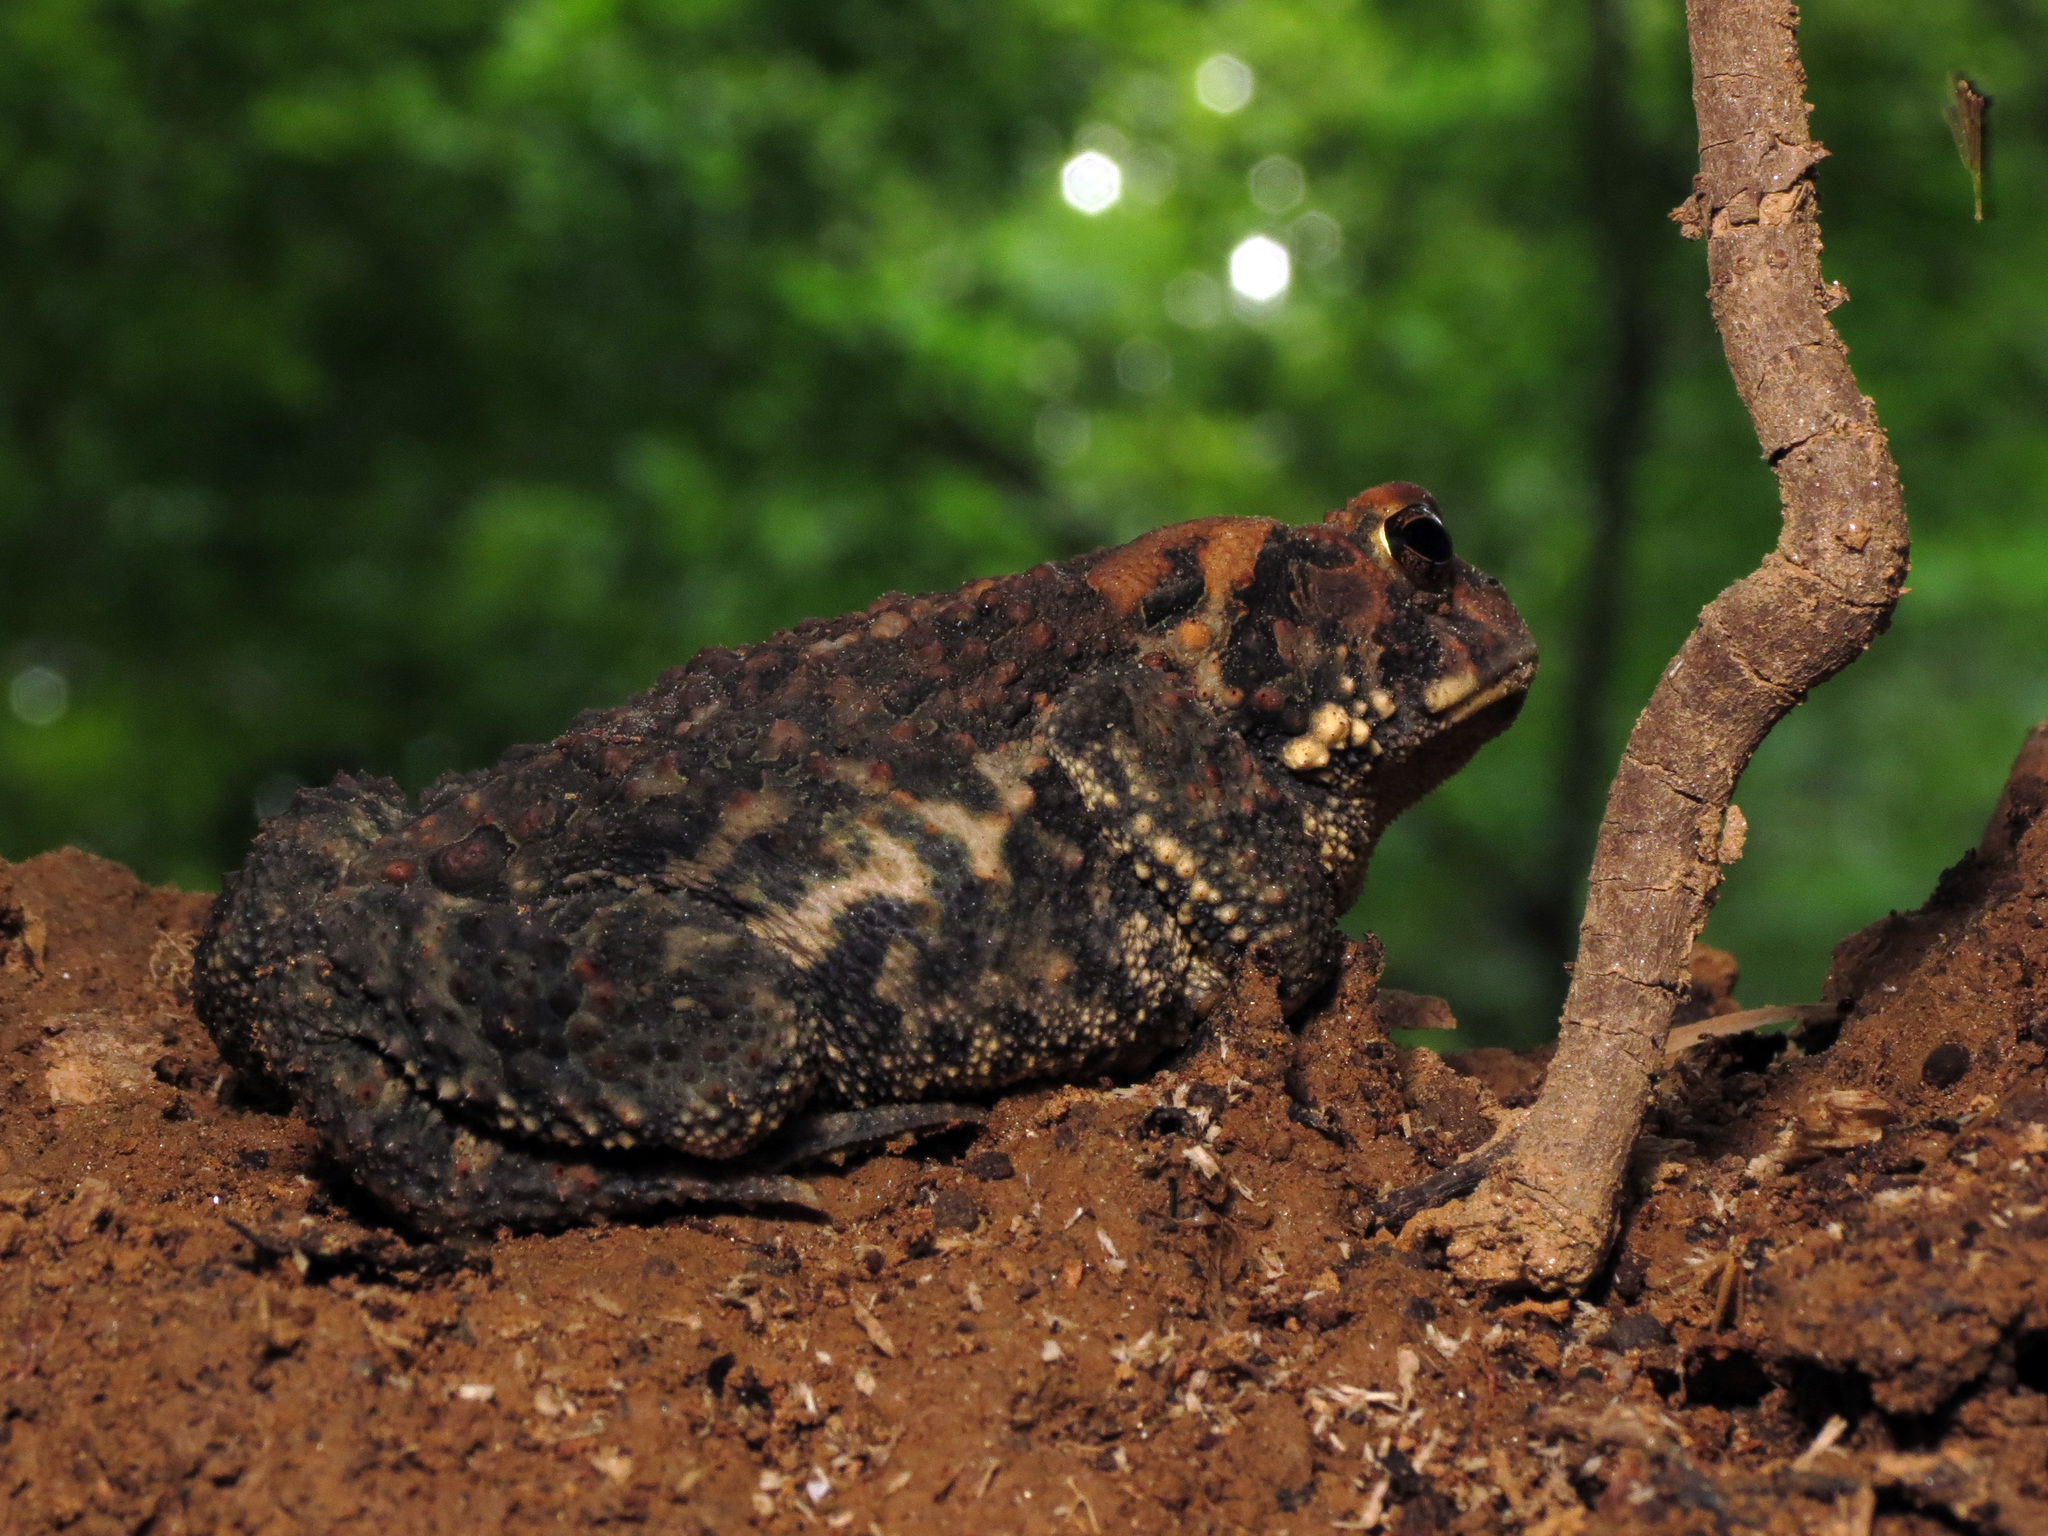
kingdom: Animalia
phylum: Chordata
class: Amphibia
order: Anura
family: Bufonidae
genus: Anaxyrus
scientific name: Anaxyrus americanus
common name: American toad
